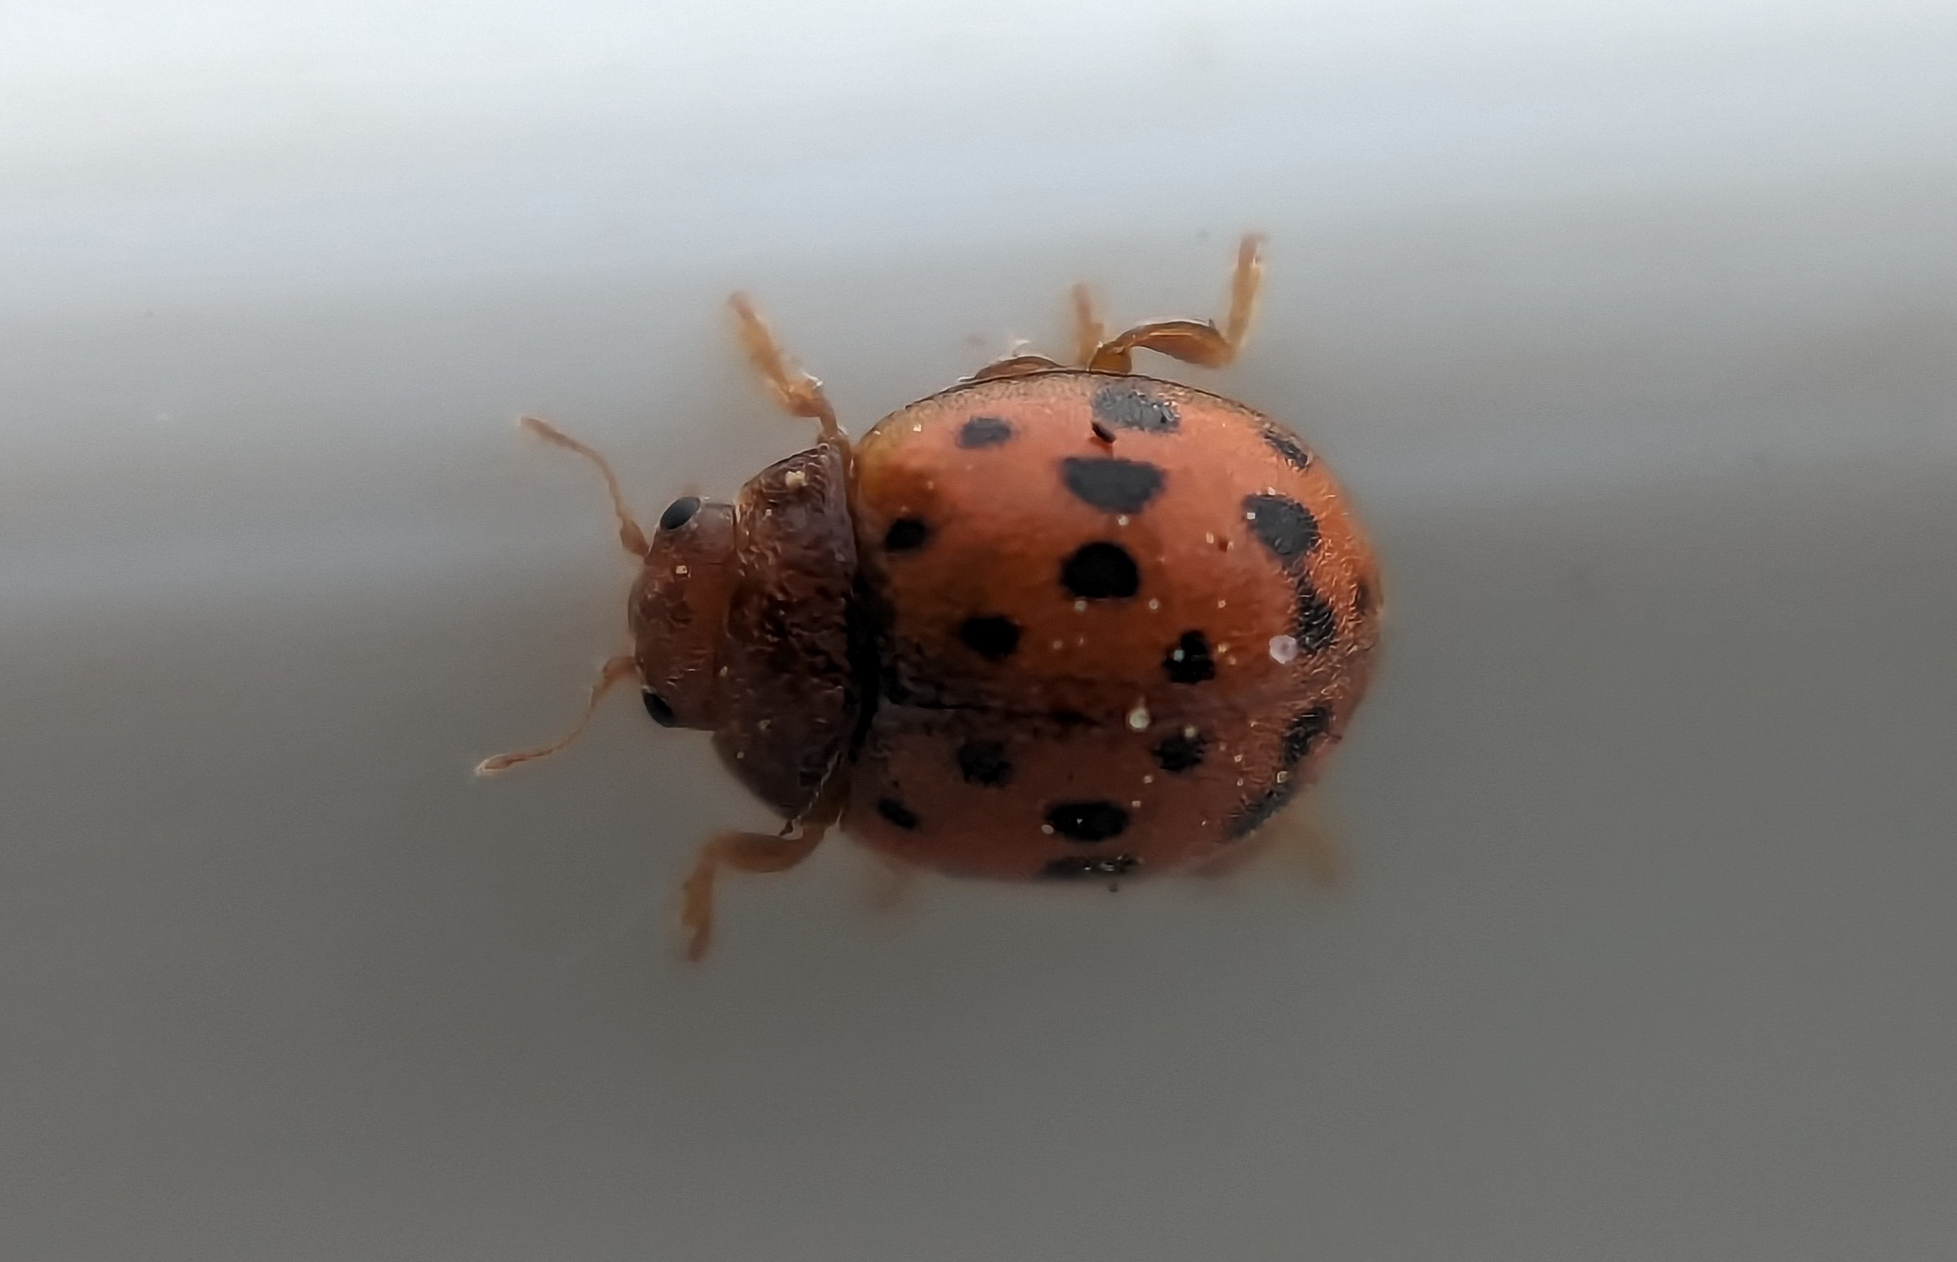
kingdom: Animalia
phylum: Arthropoda
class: Insecta
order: Coleoptera
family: Coccinellidae
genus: Subcoccinella
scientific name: Subcoccinella vigintiquatuorpunctata
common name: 24-spot ladybird
